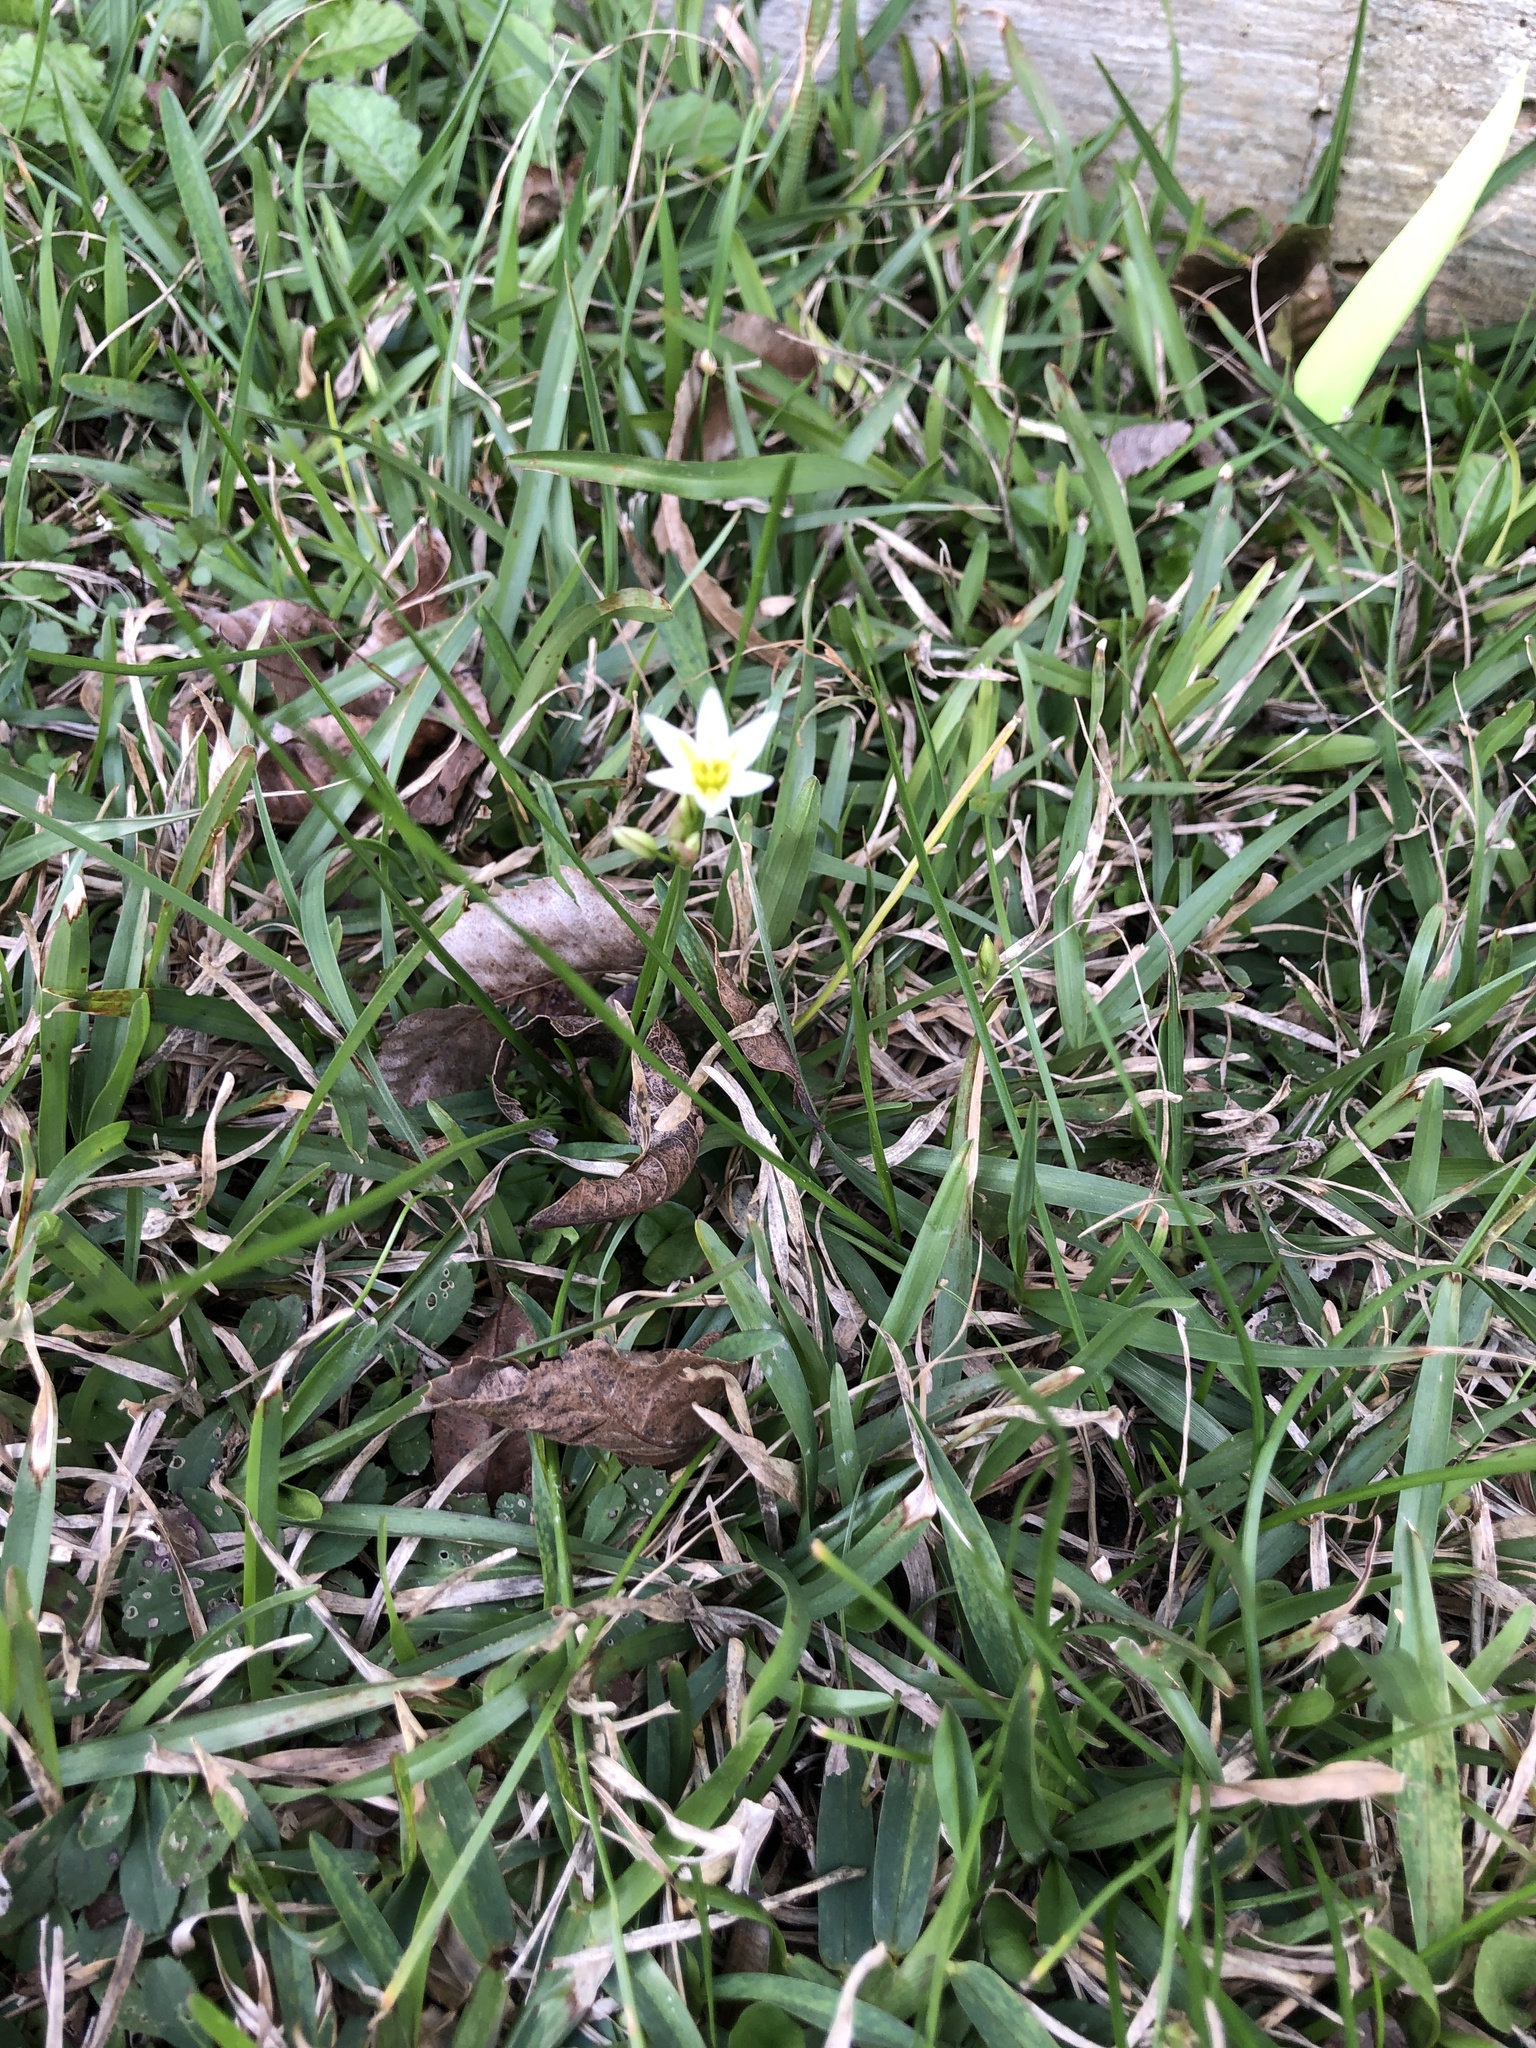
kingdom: Plantae
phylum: Tracheophyta
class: Liliopsida
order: Asparagales
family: Amaryllidaceae
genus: Nothoscordum
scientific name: Nothoscordum bivalve
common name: Crow-poison
